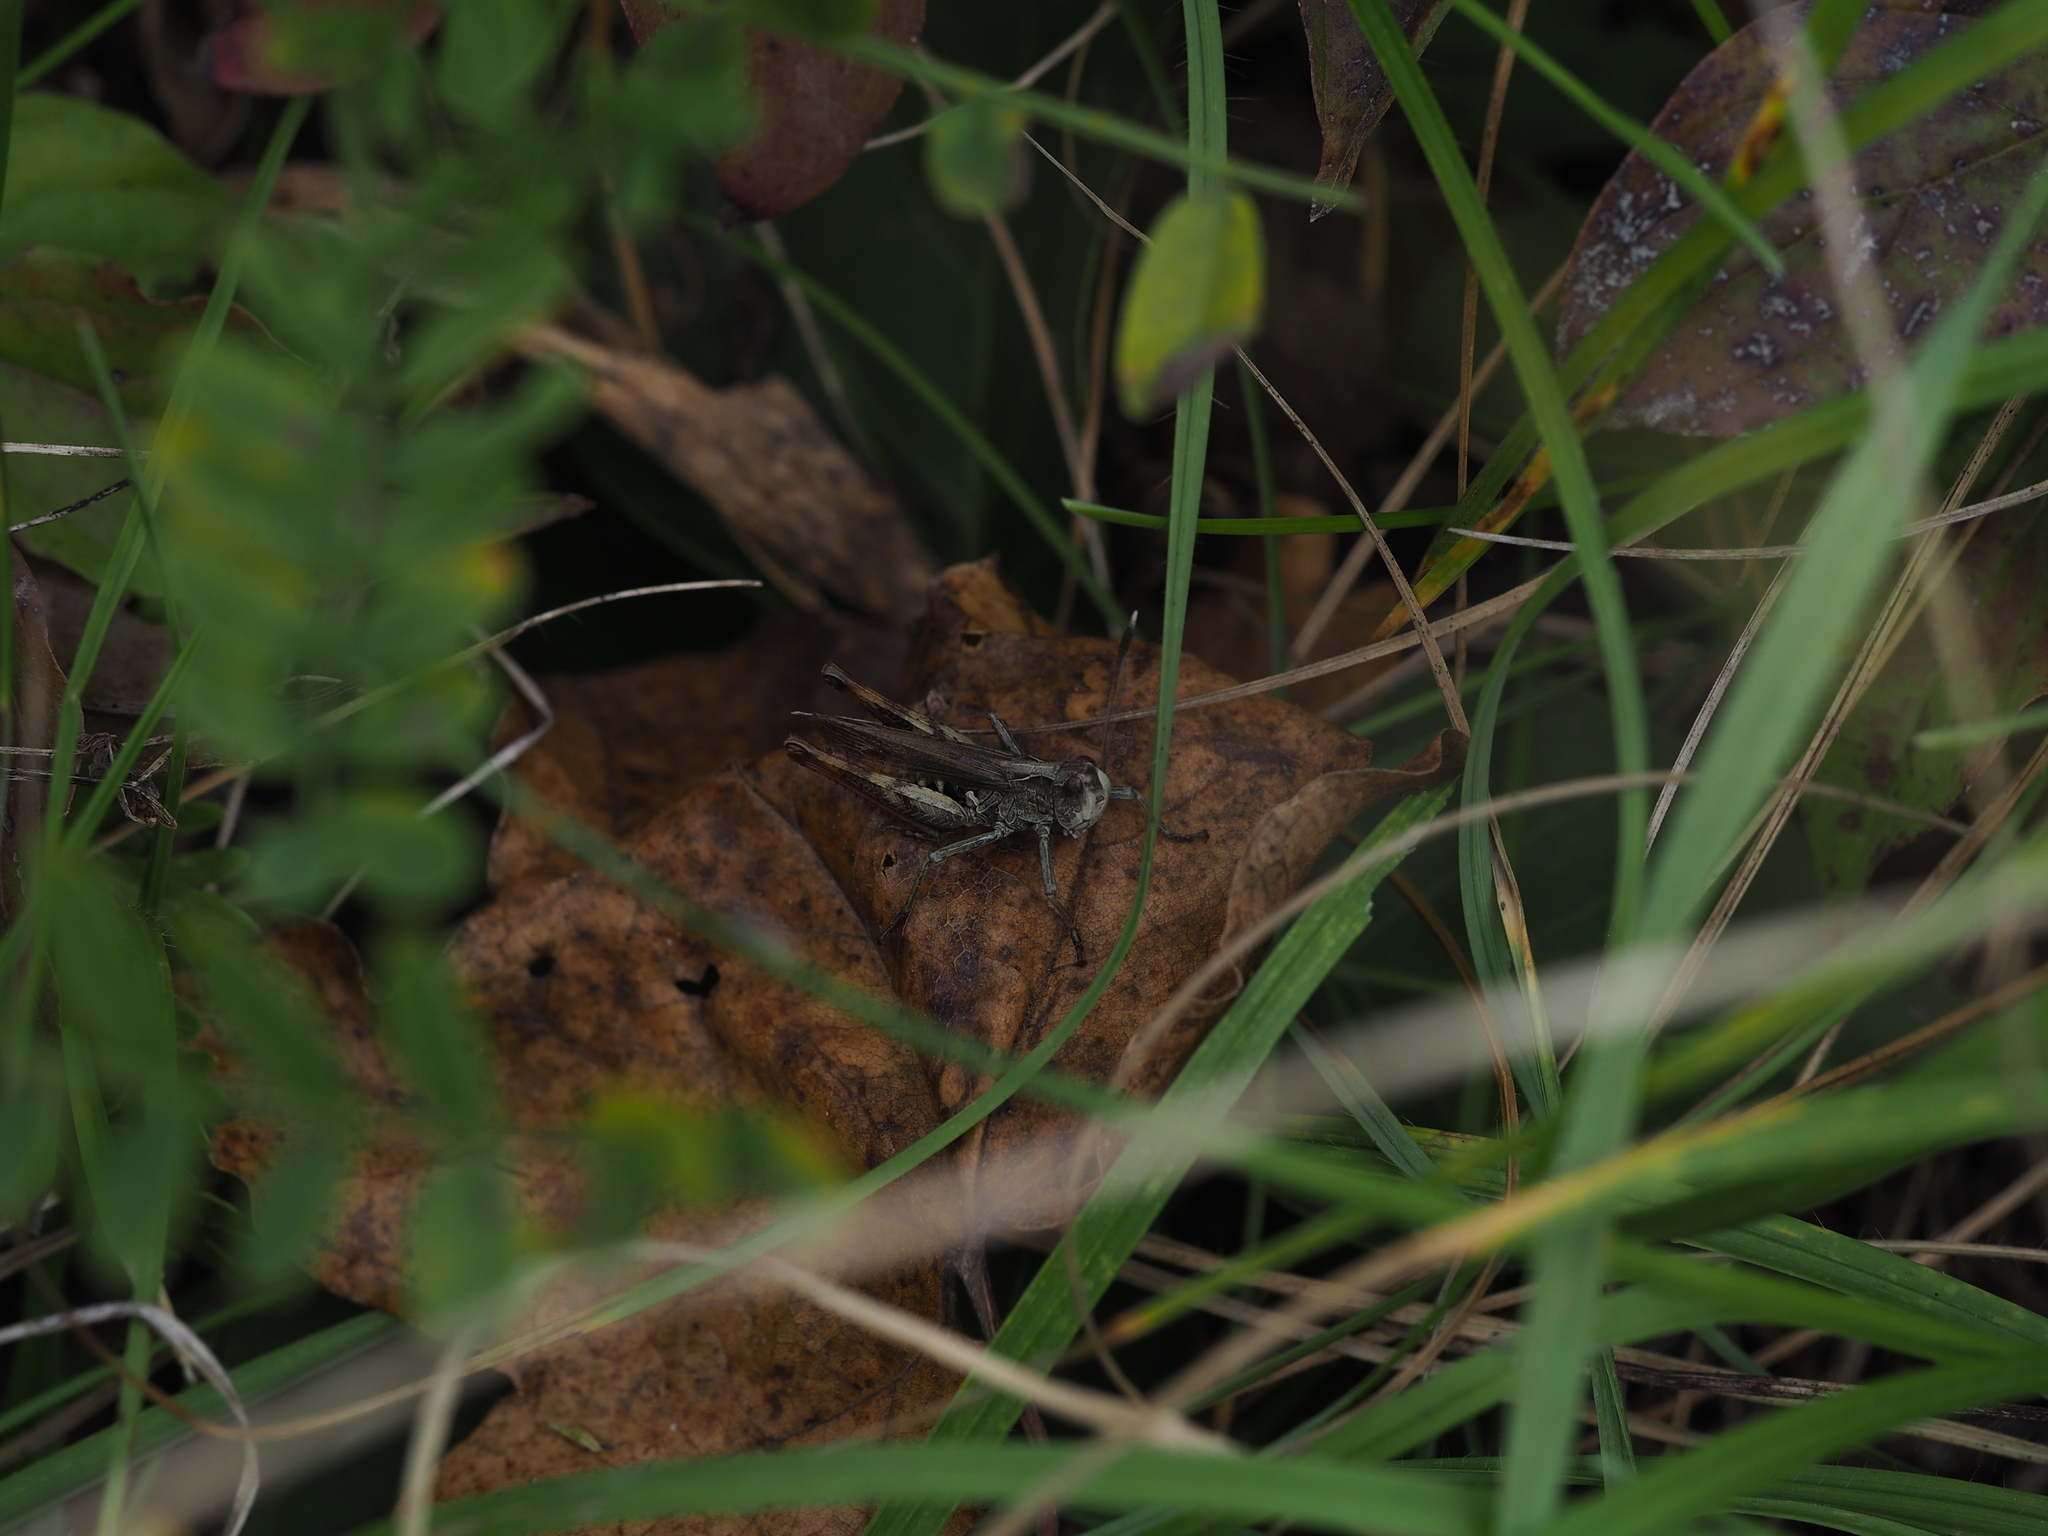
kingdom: Animalia
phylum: Arthropoda
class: Insecta
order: Orthoptera
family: Acrididae
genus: Gomphocerippus
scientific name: Gomphocerippus rufus
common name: Rufous grasshopper
